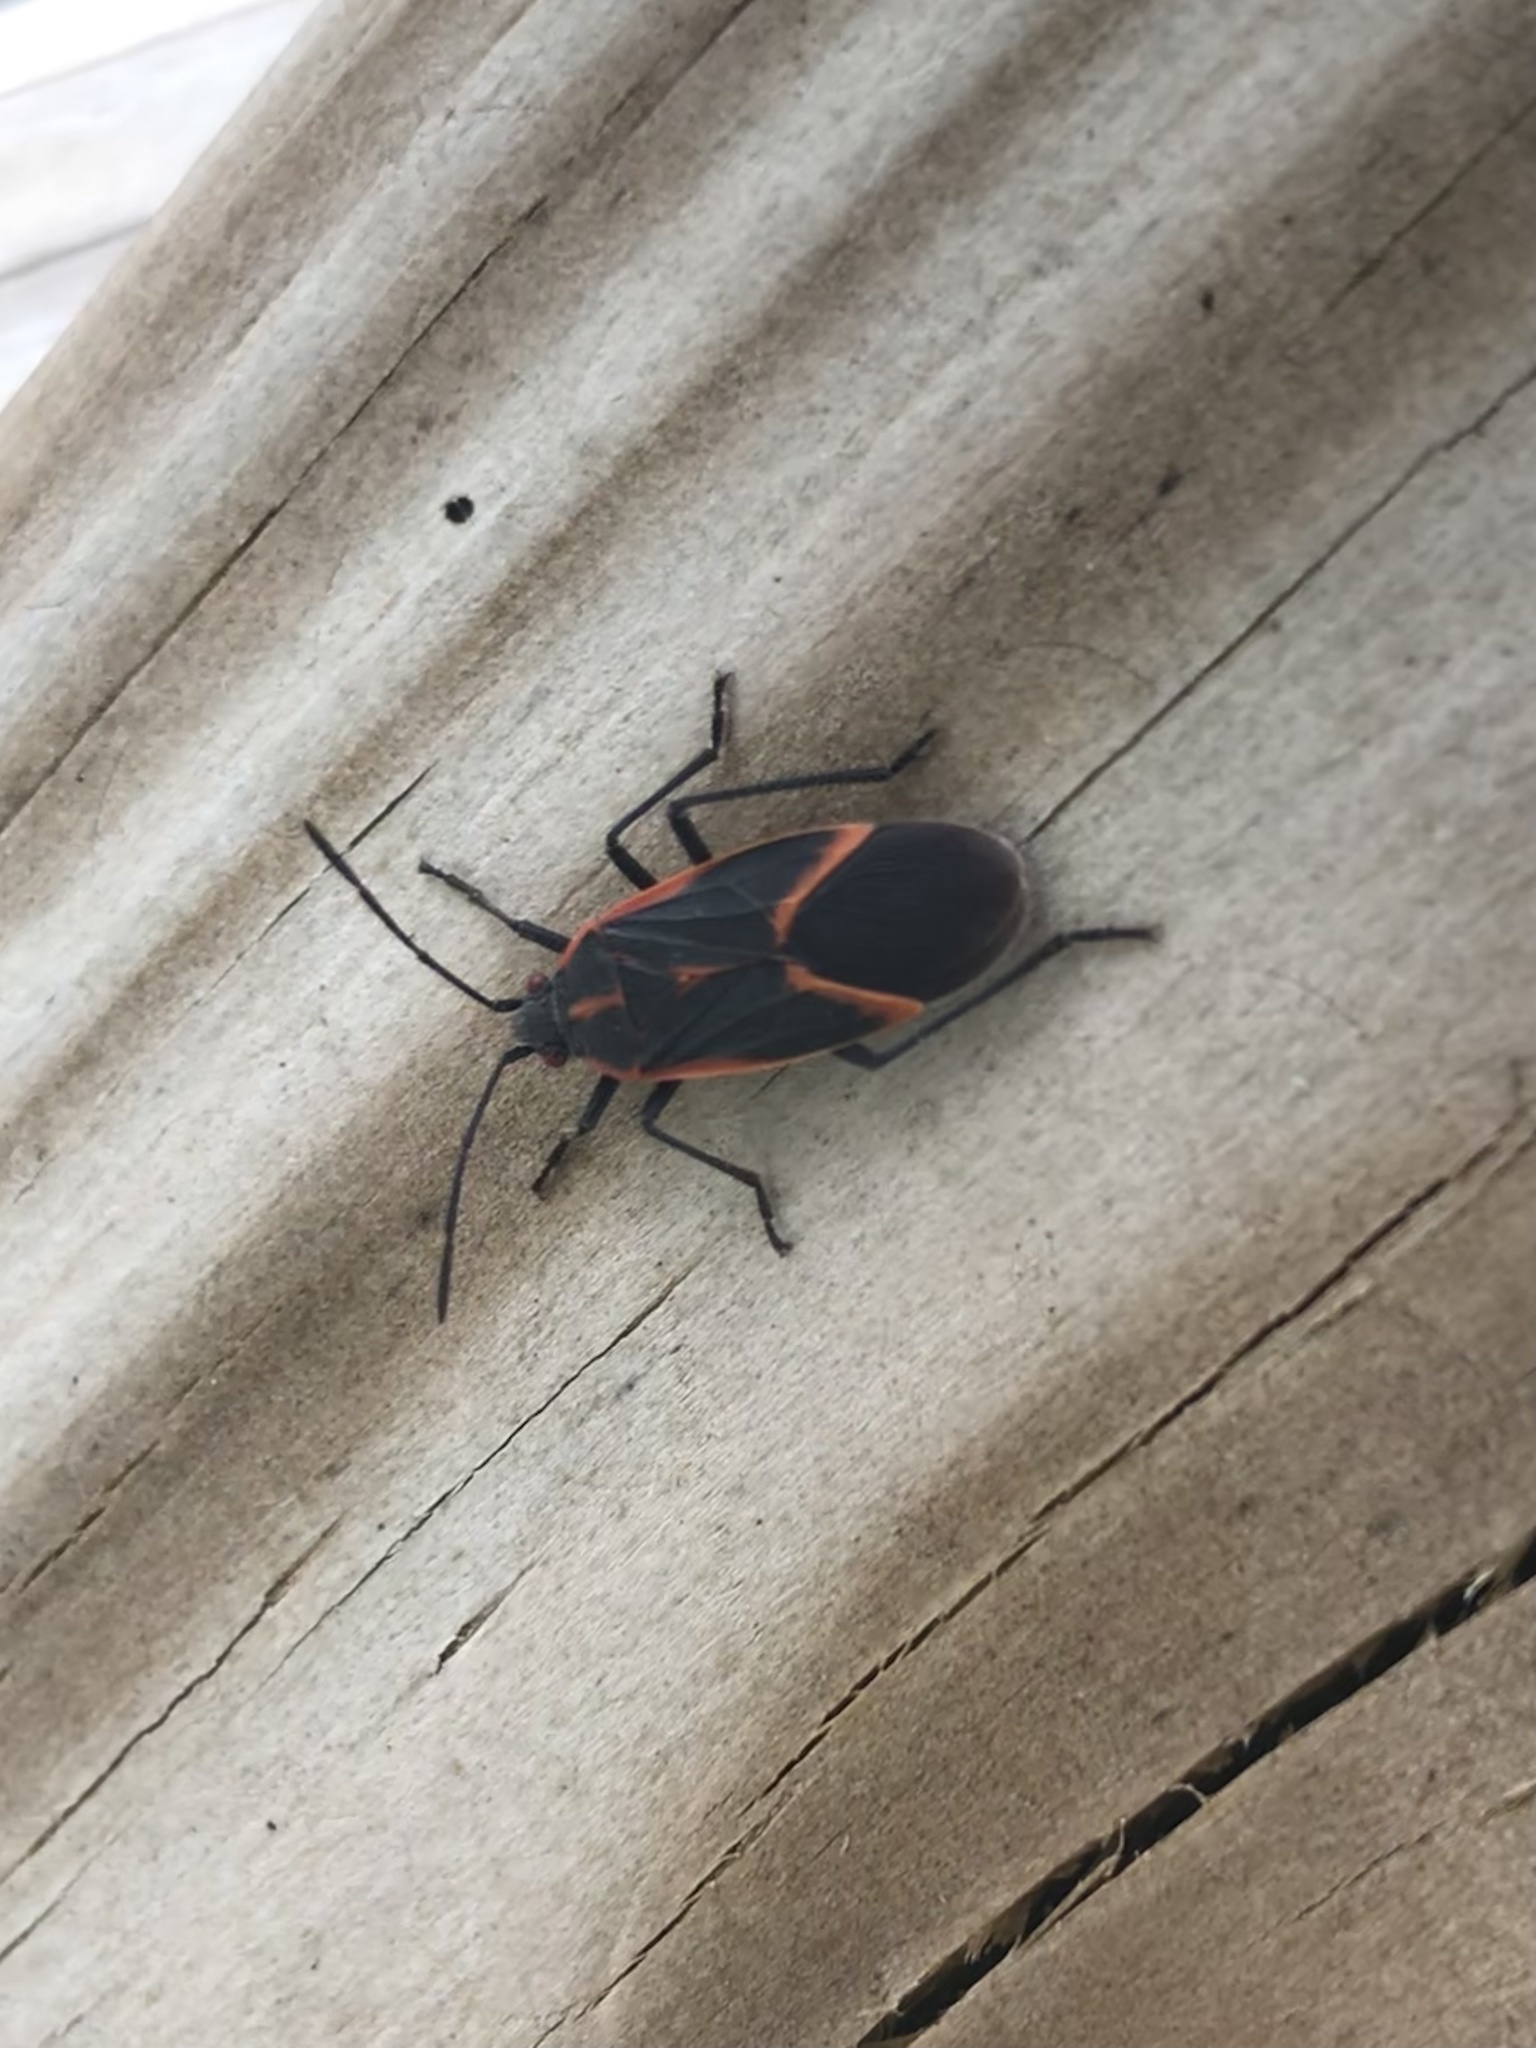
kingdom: Animalia
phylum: Arthropoda
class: Insecta
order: Hemiptera
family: Rhopalidae
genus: Boisea
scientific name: Boisea trivittata
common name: Boxelder bug
